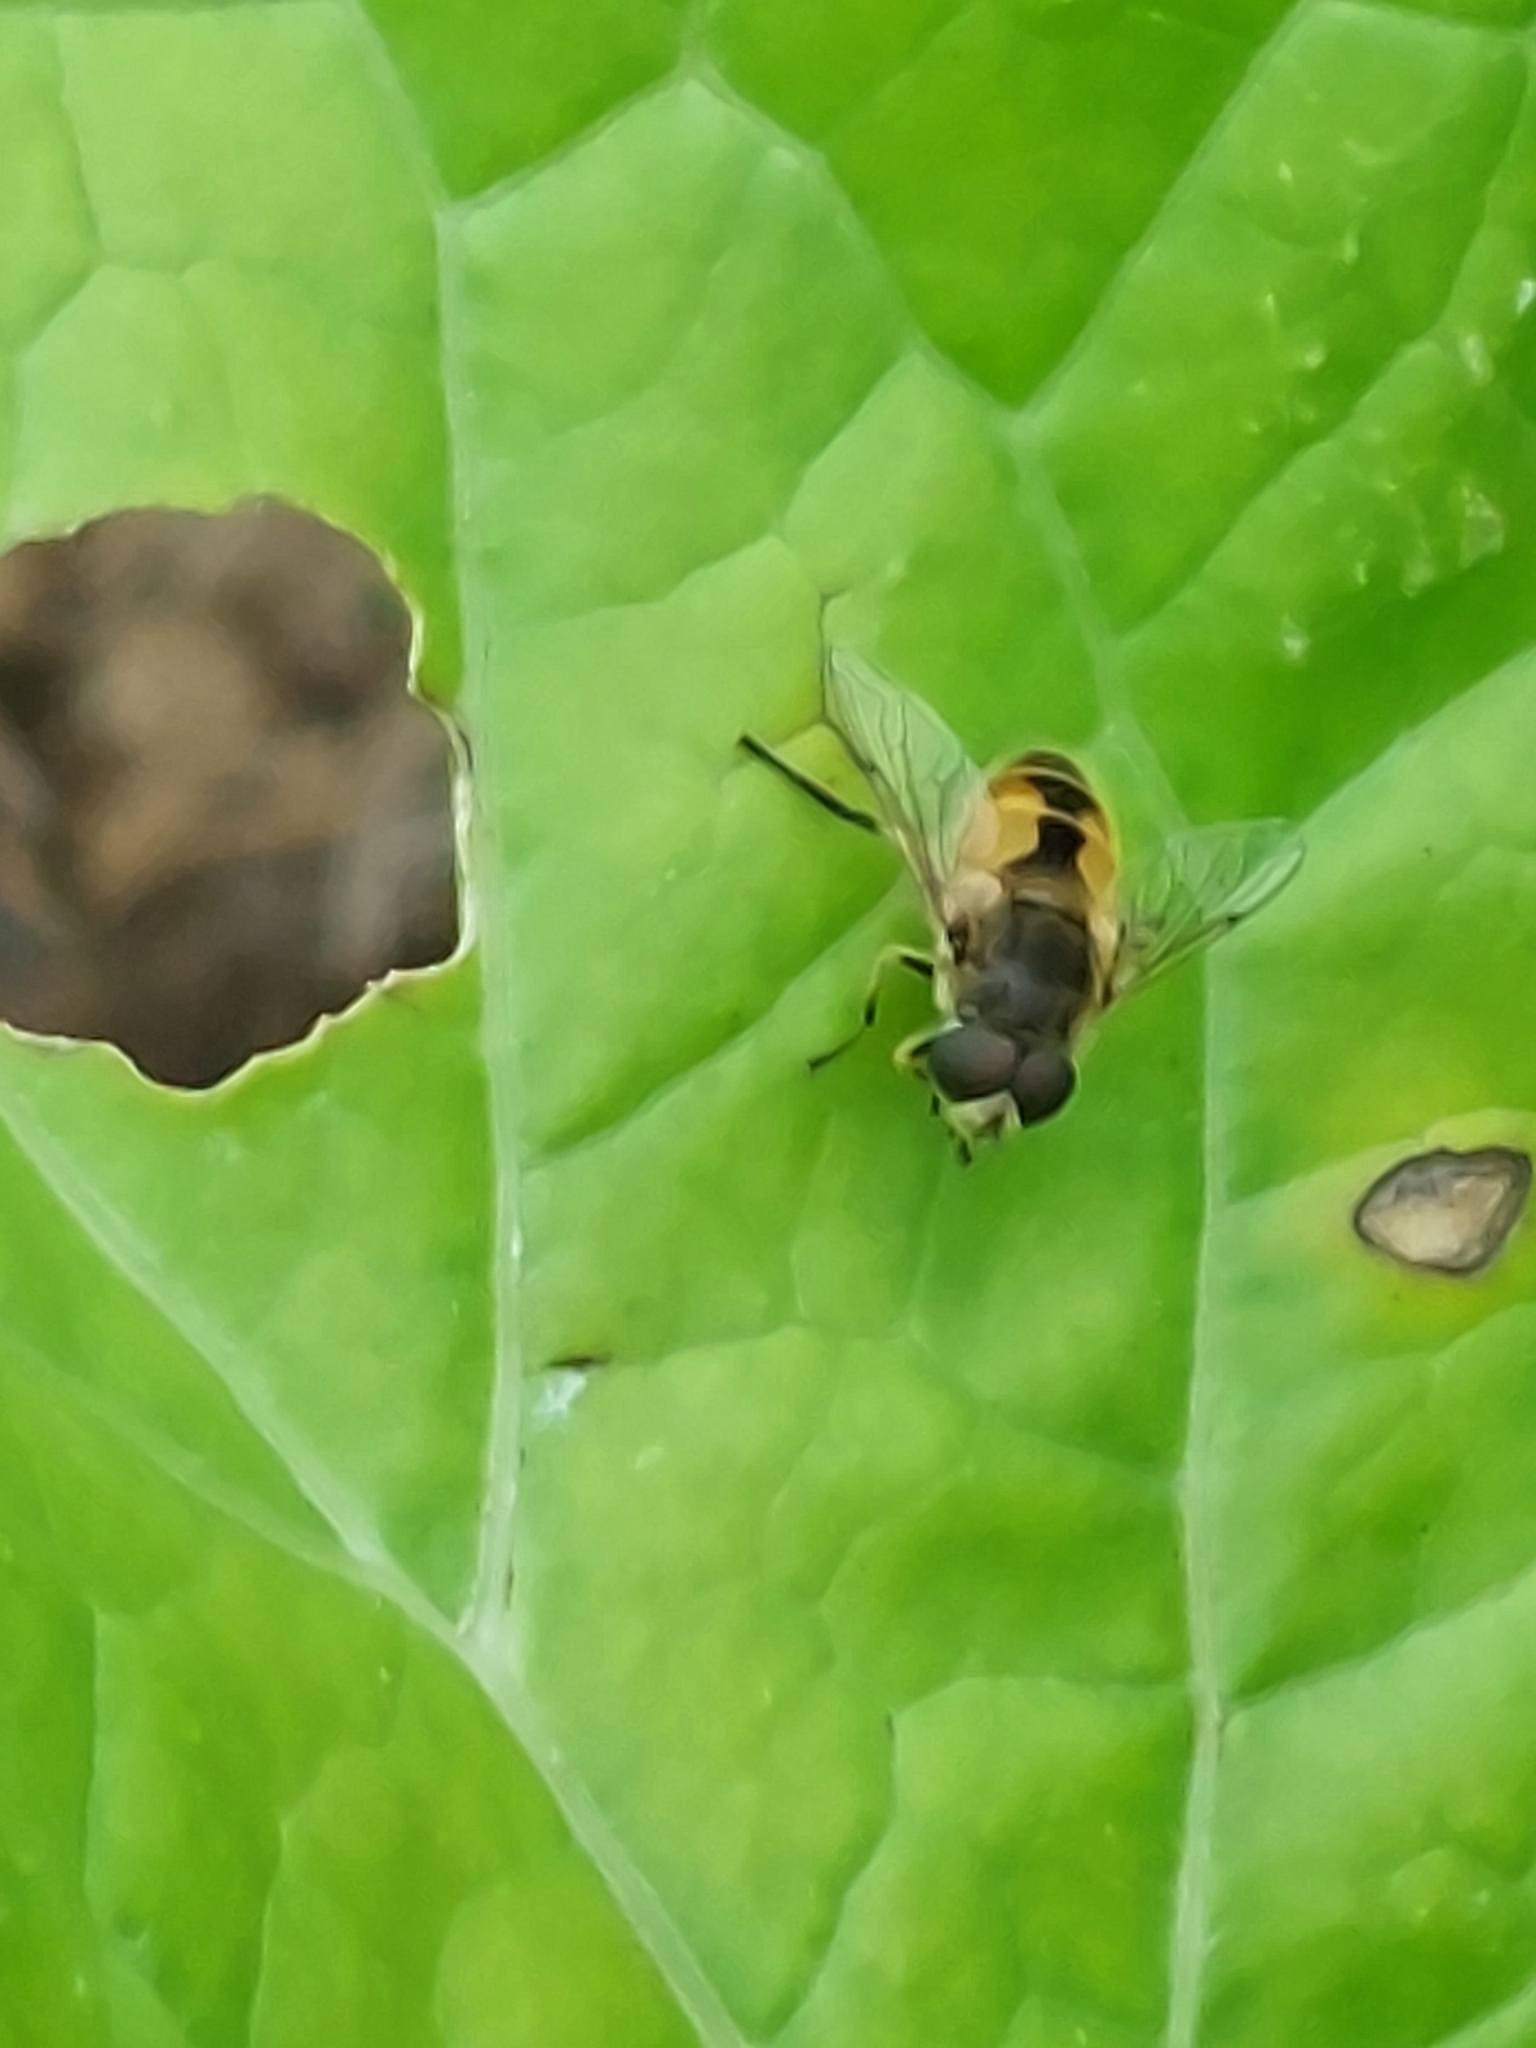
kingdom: Animalia
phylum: Arthropoda
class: Insecta
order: Diptera
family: Syrphidae
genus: Eristalis
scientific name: Eristalis arbustorum
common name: Hover fly
